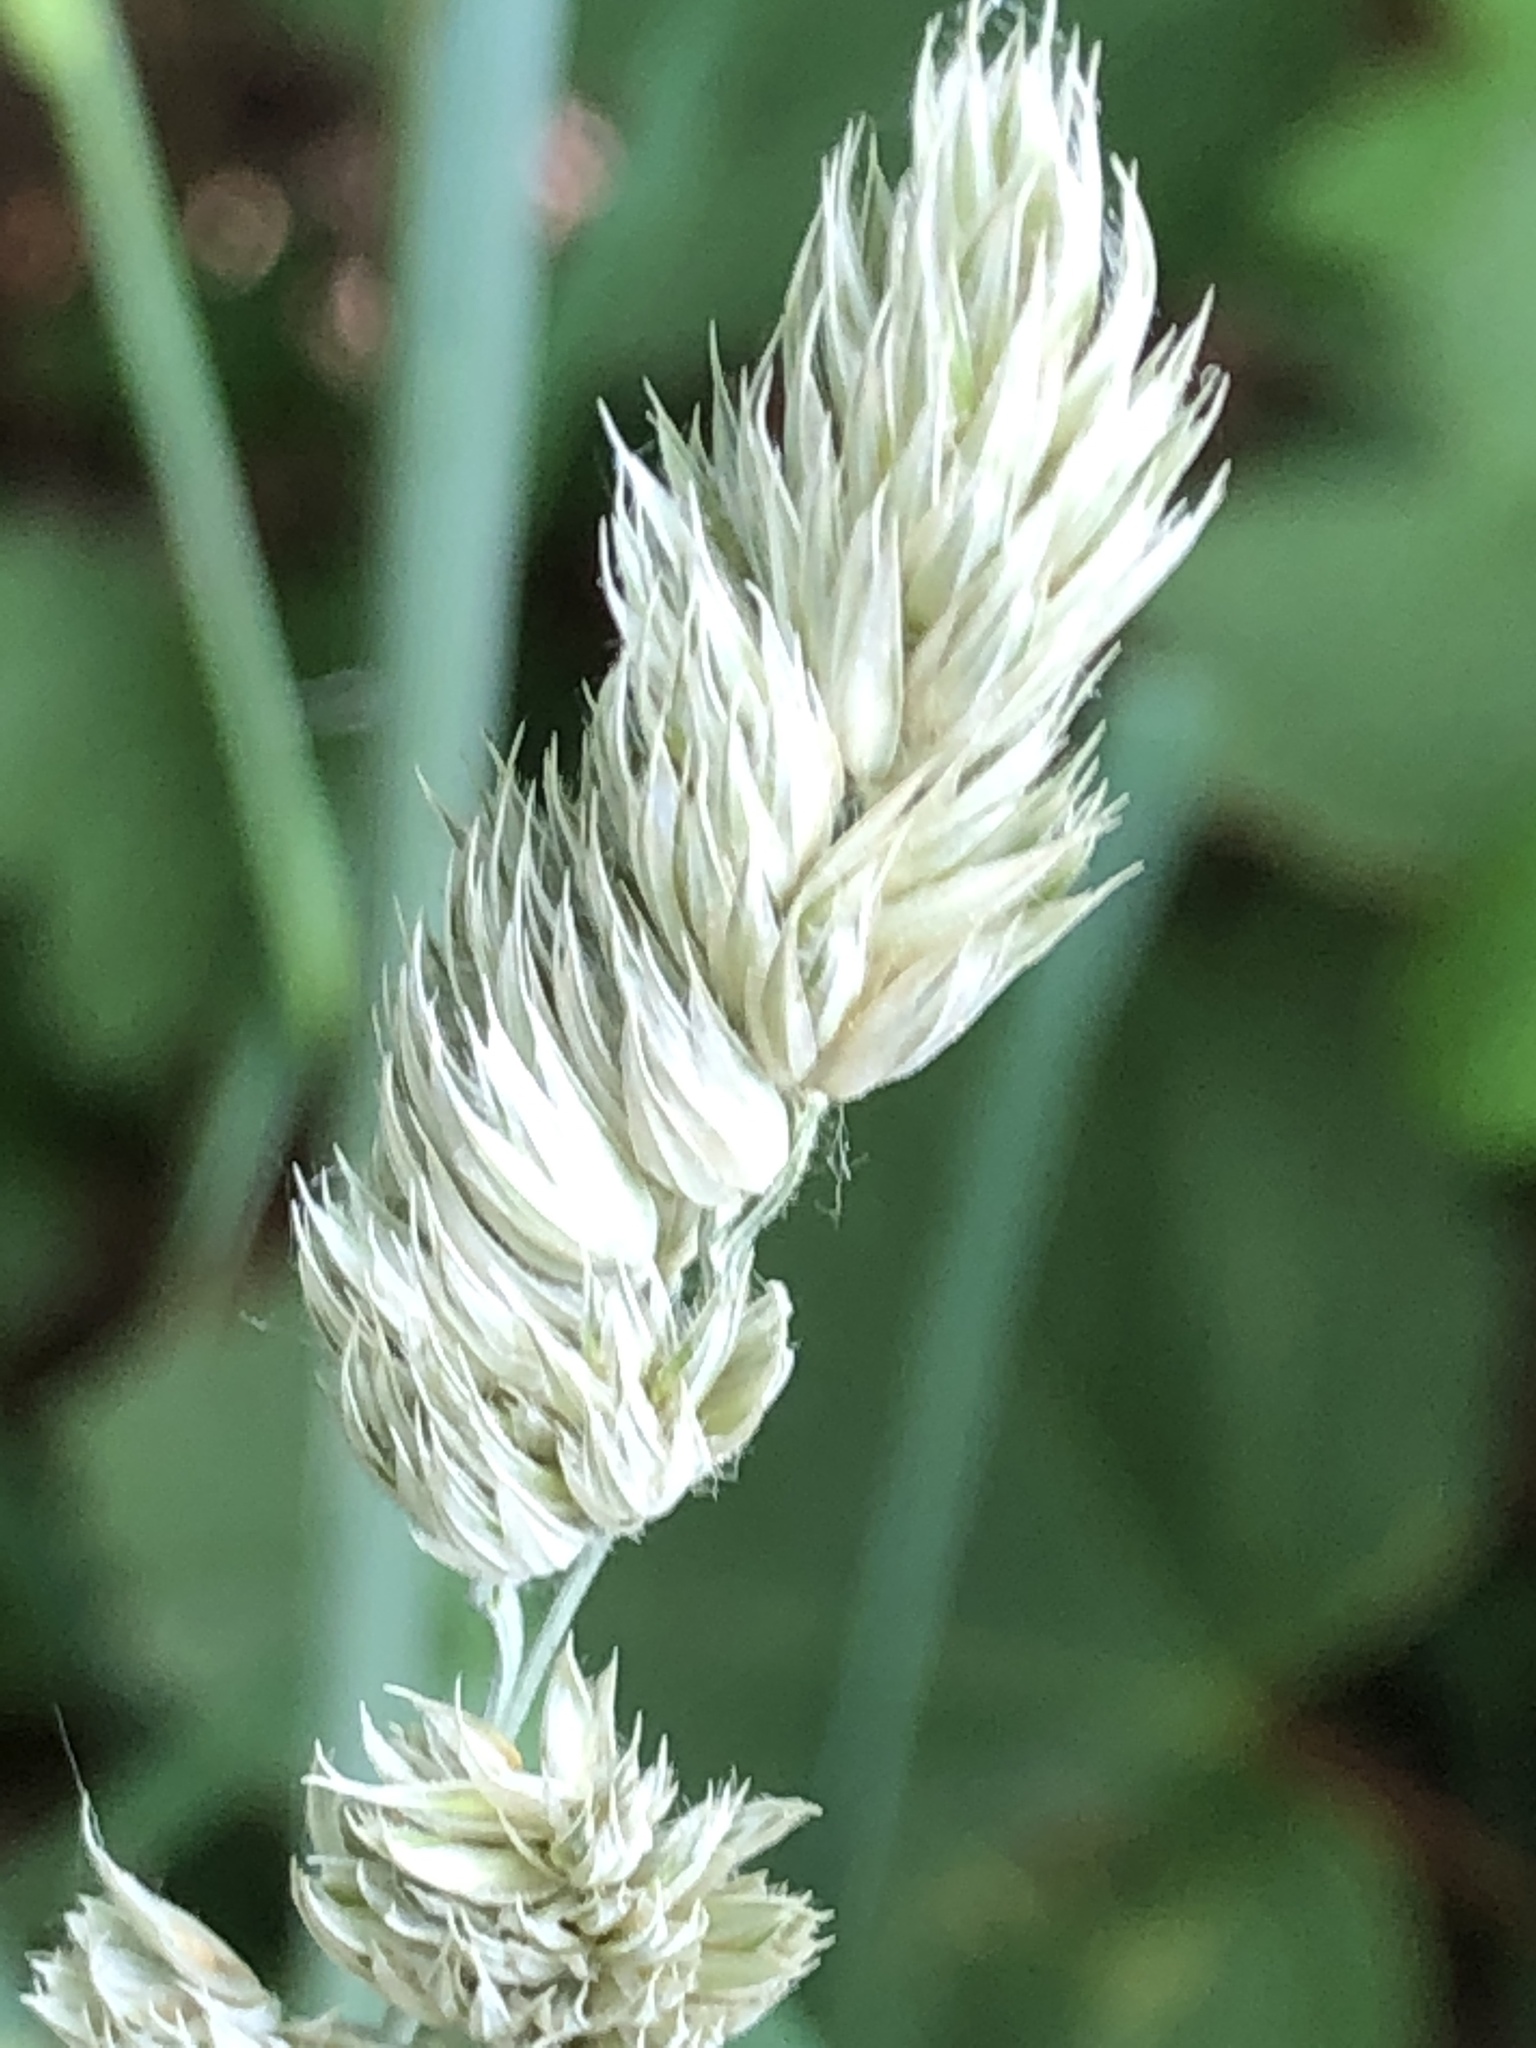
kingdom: Plantae
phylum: Tracheophyta
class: Liliopsida
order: Poales
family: Poaceae
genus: Dactylis
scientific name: Dactylis glomerata
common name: Orchardgrass
